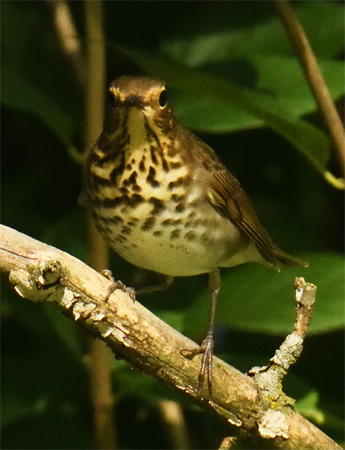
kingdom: Animalia
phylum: Chordata
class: Aves
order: Passeriformes
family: Turdidae
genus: Catharus
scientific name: Catharus ustulatus
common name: Swainson's thrush
